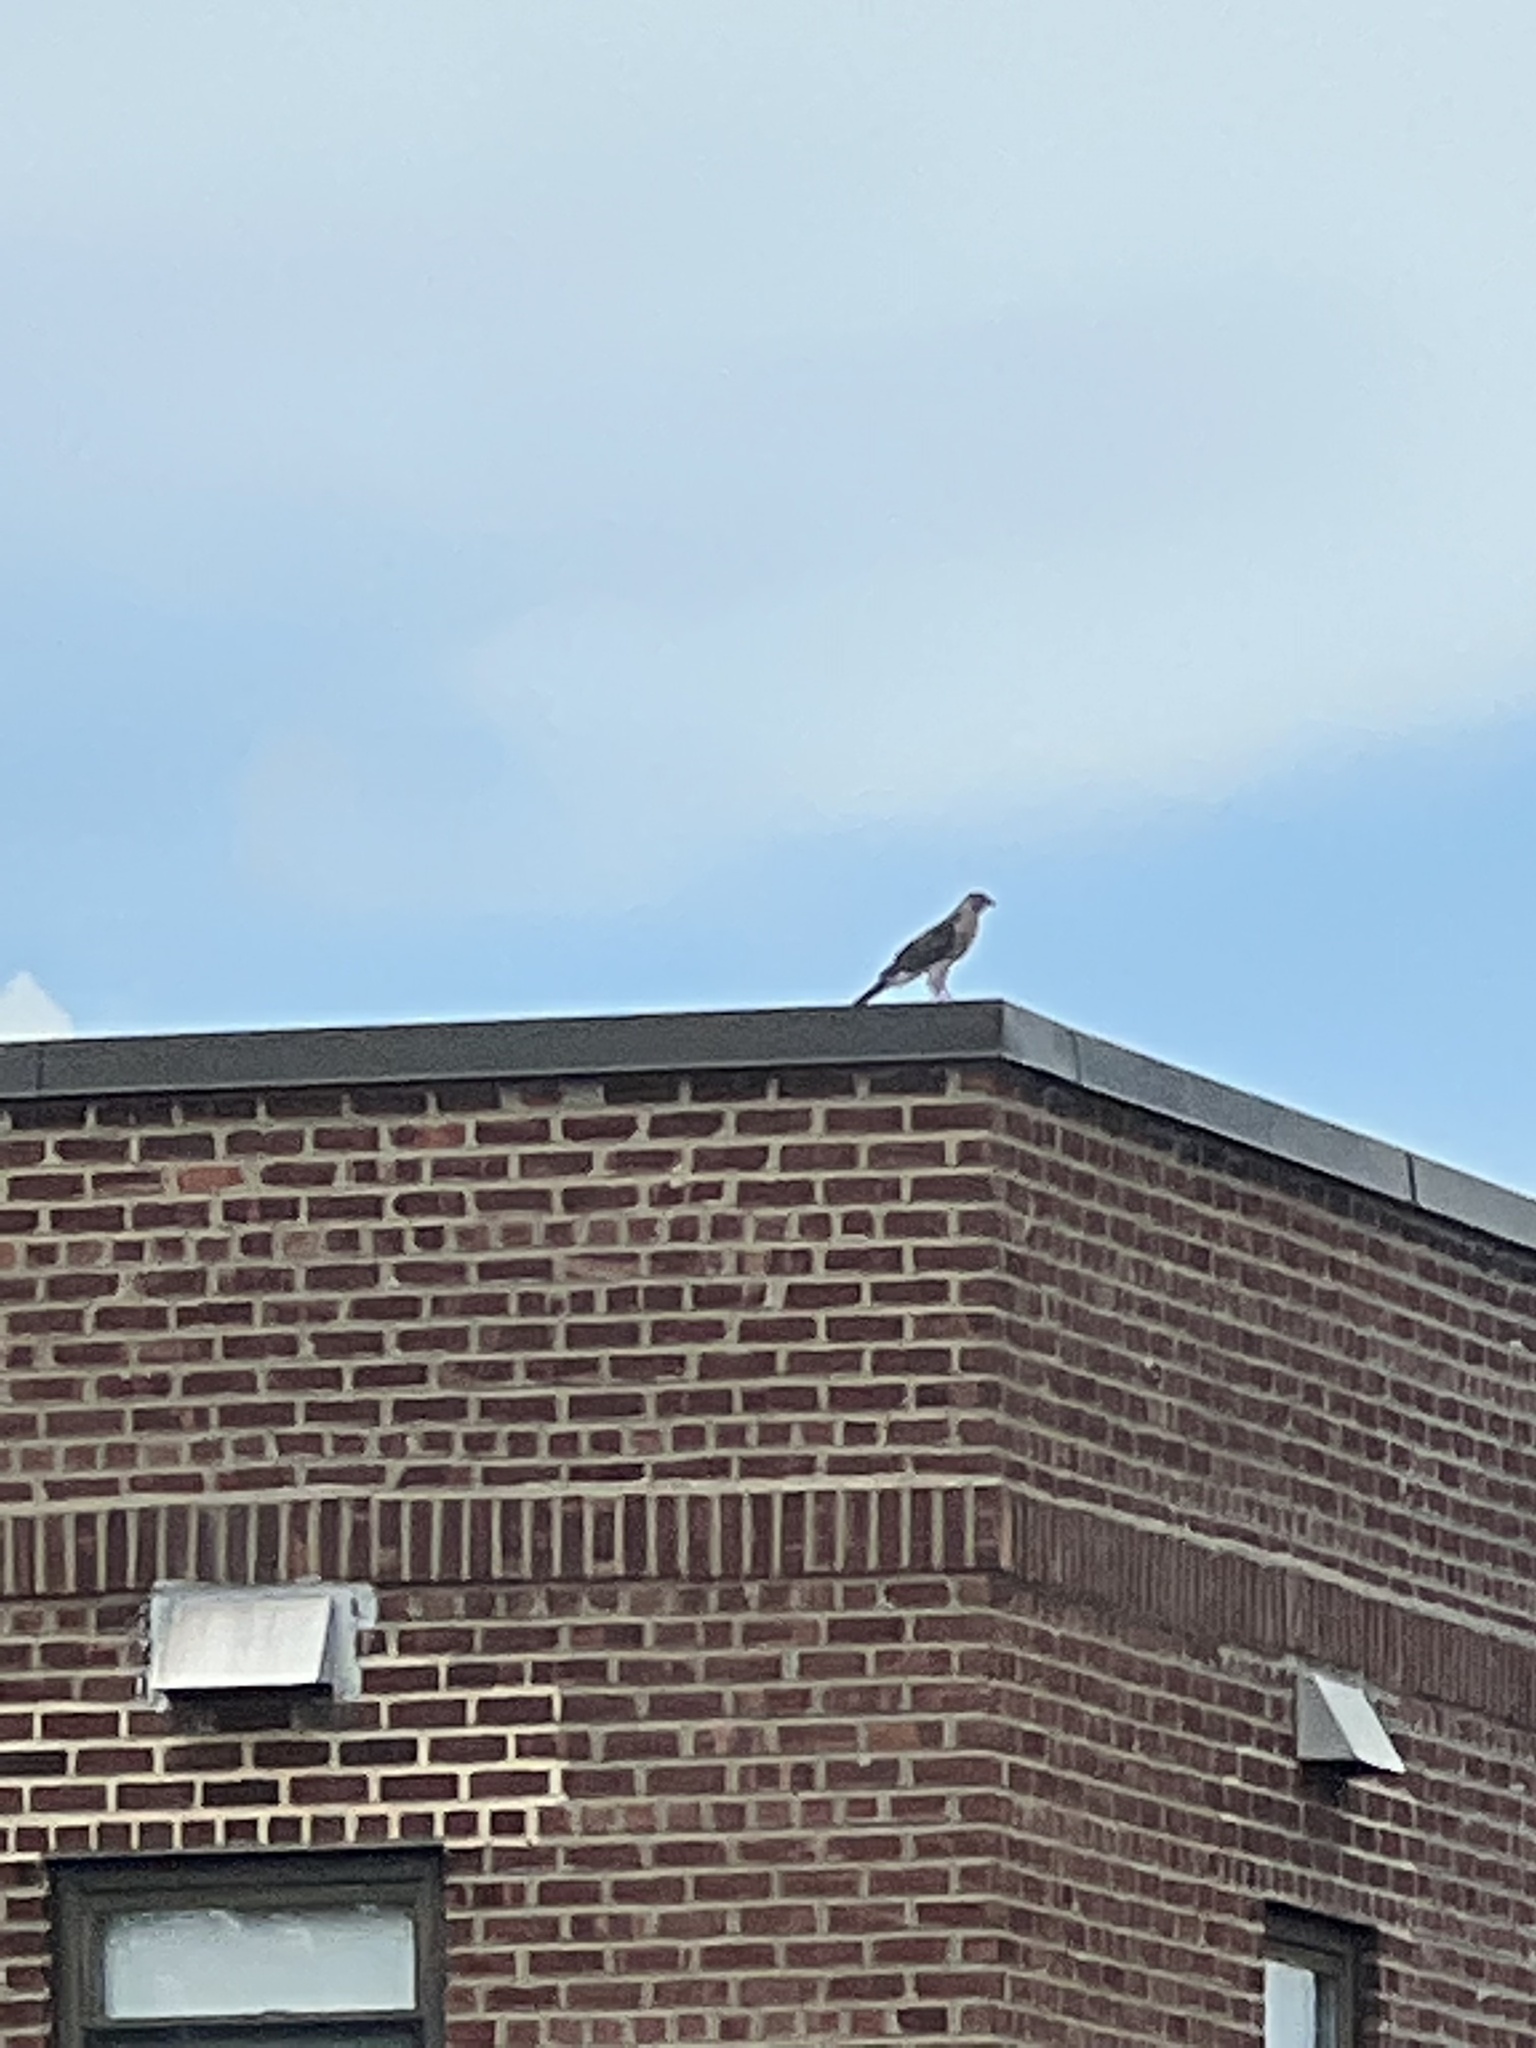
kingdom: Animalia
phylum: Chordata
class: Aves
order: Accipitriformes
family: Accipitridae
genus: Accipiter
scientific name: Accipiter cooperii
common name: Cooper's hawk
